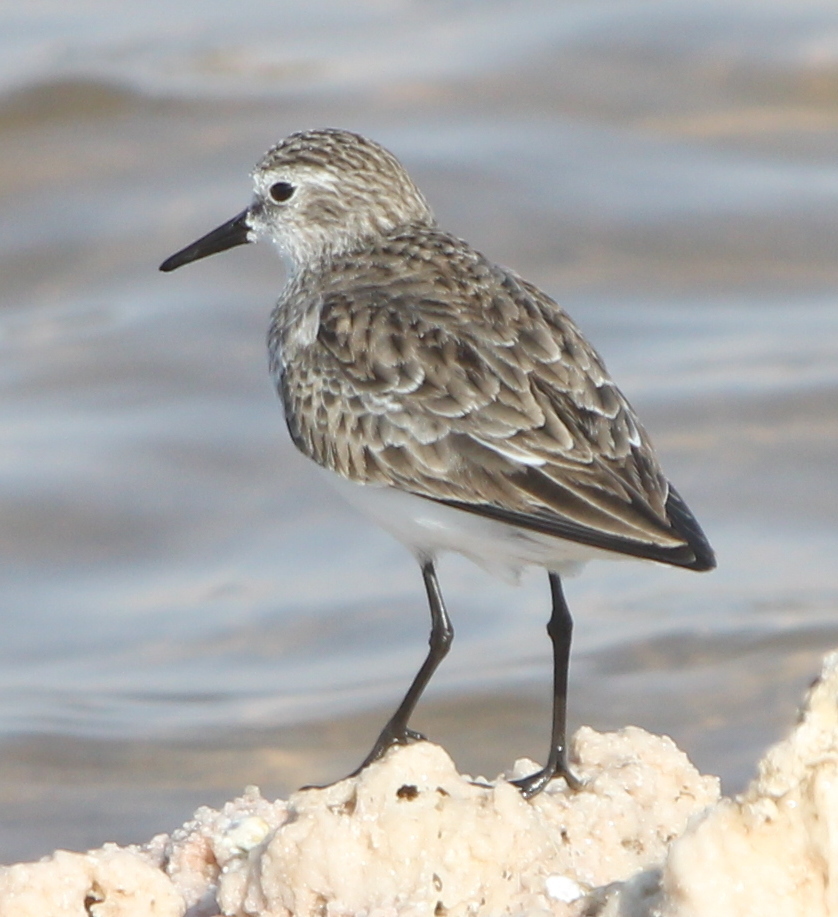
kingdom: Animalia
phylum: Chordata
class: Aves
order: Charadriiformes
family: Scolopacidae
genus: Calidris
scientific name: Calidris minuta
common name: Little stint
